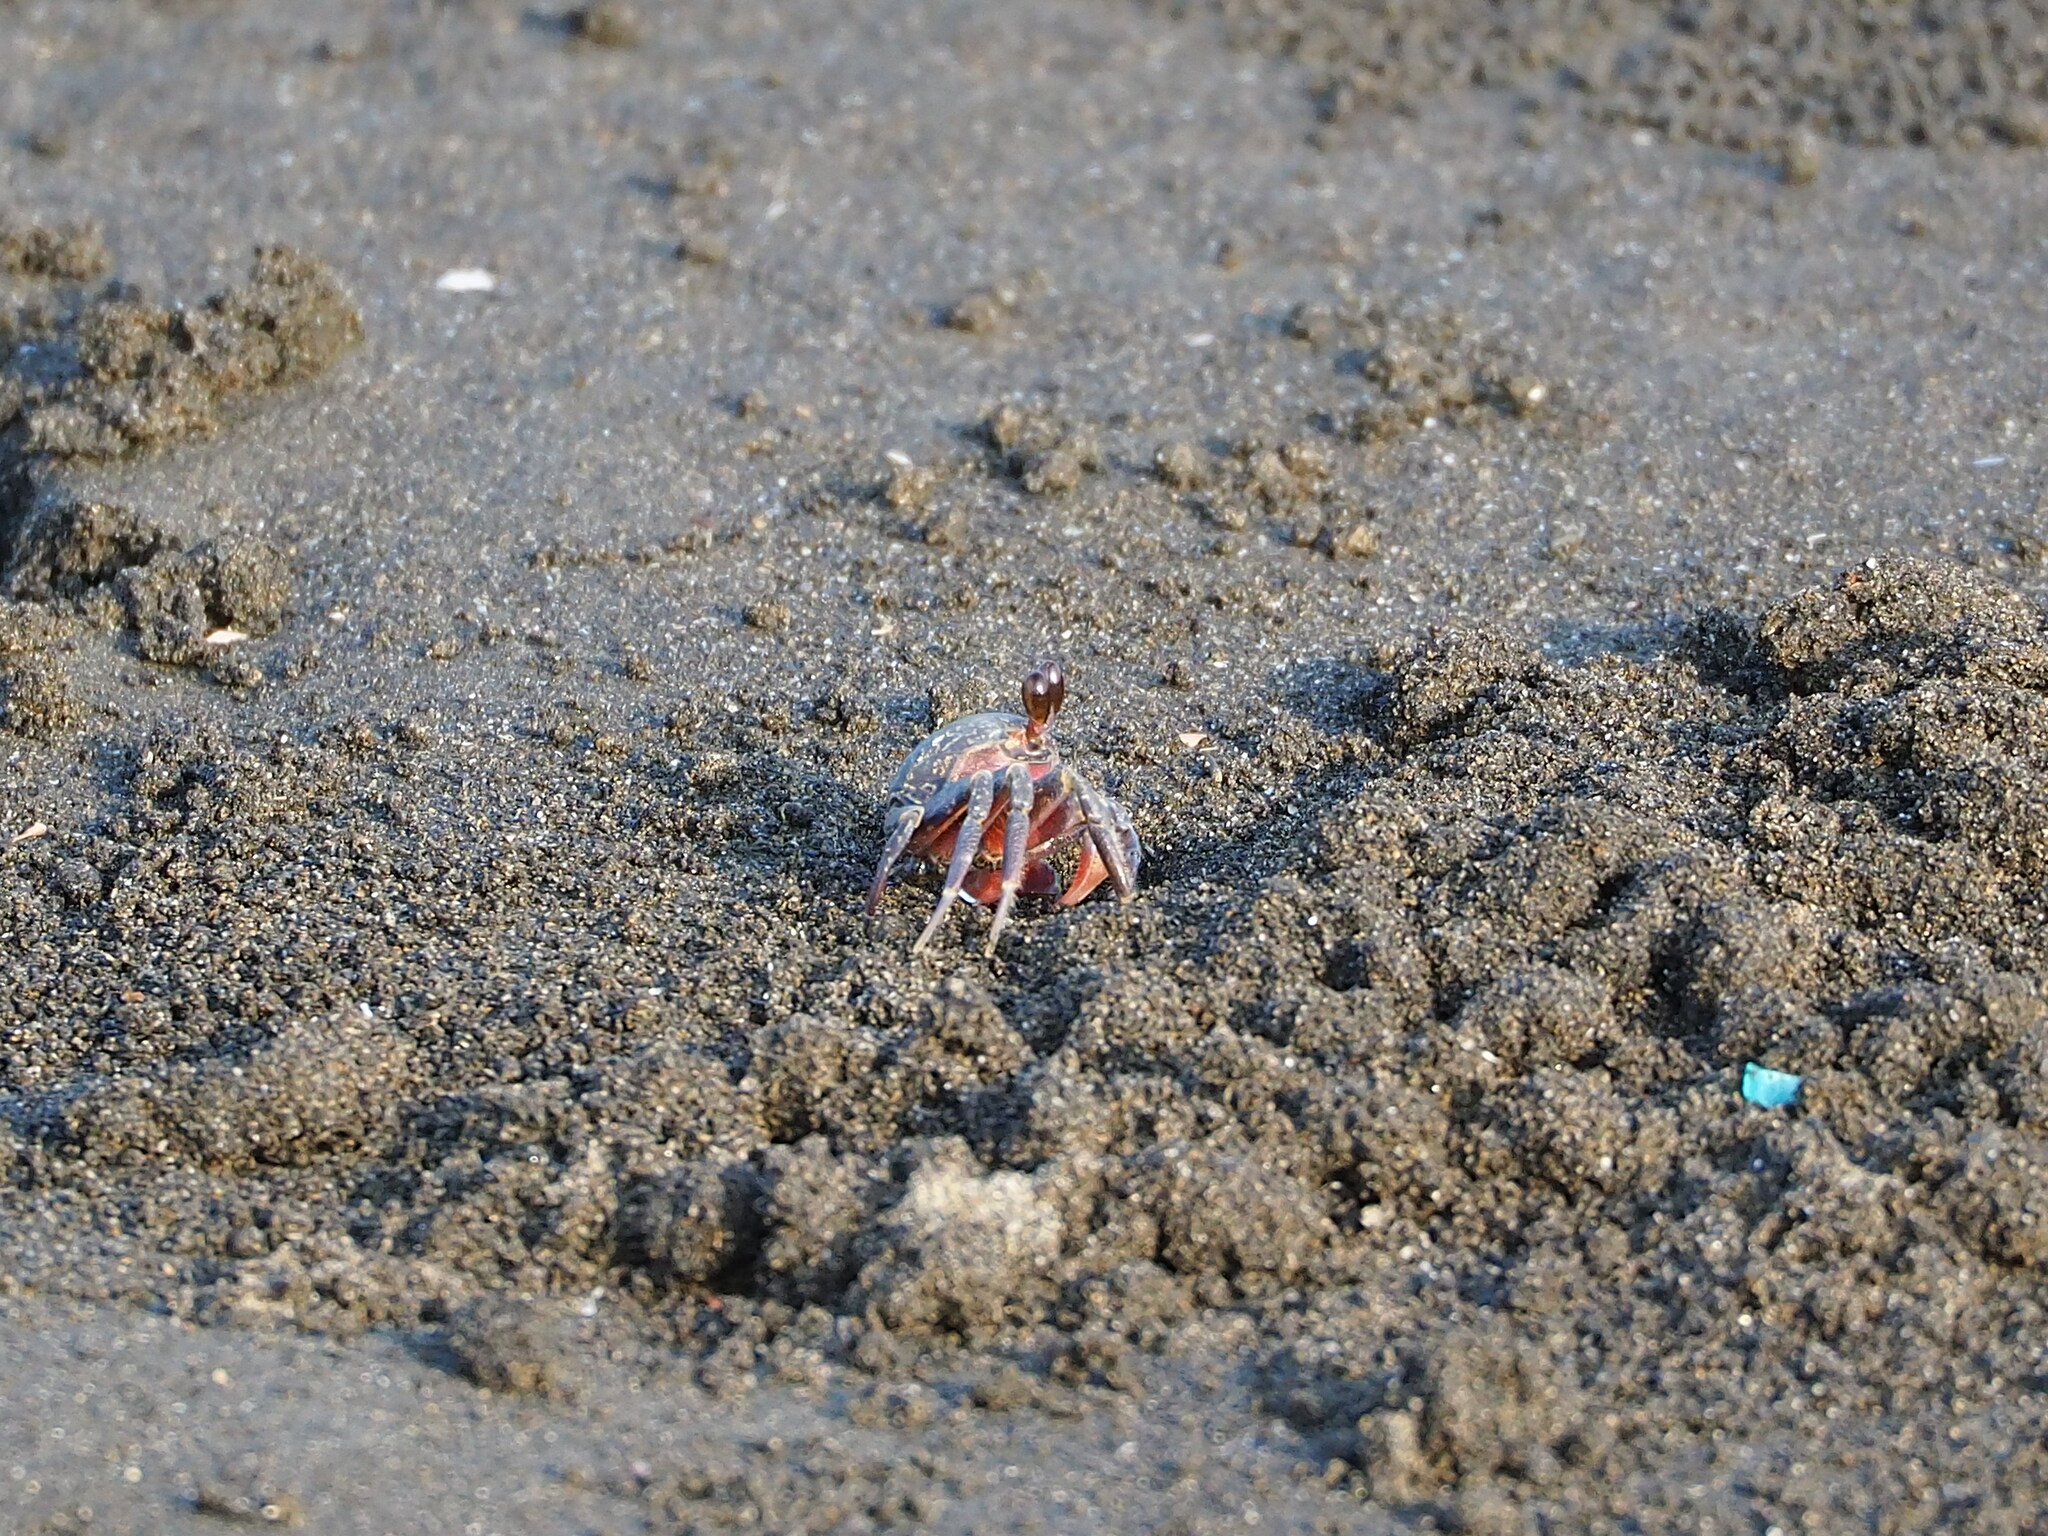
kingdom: Animalia
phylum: Arthropoda
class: Malacostraca
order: Decapoda
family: Ocypodidae
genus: Ocypode
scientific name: Ocypode stimpsoni
